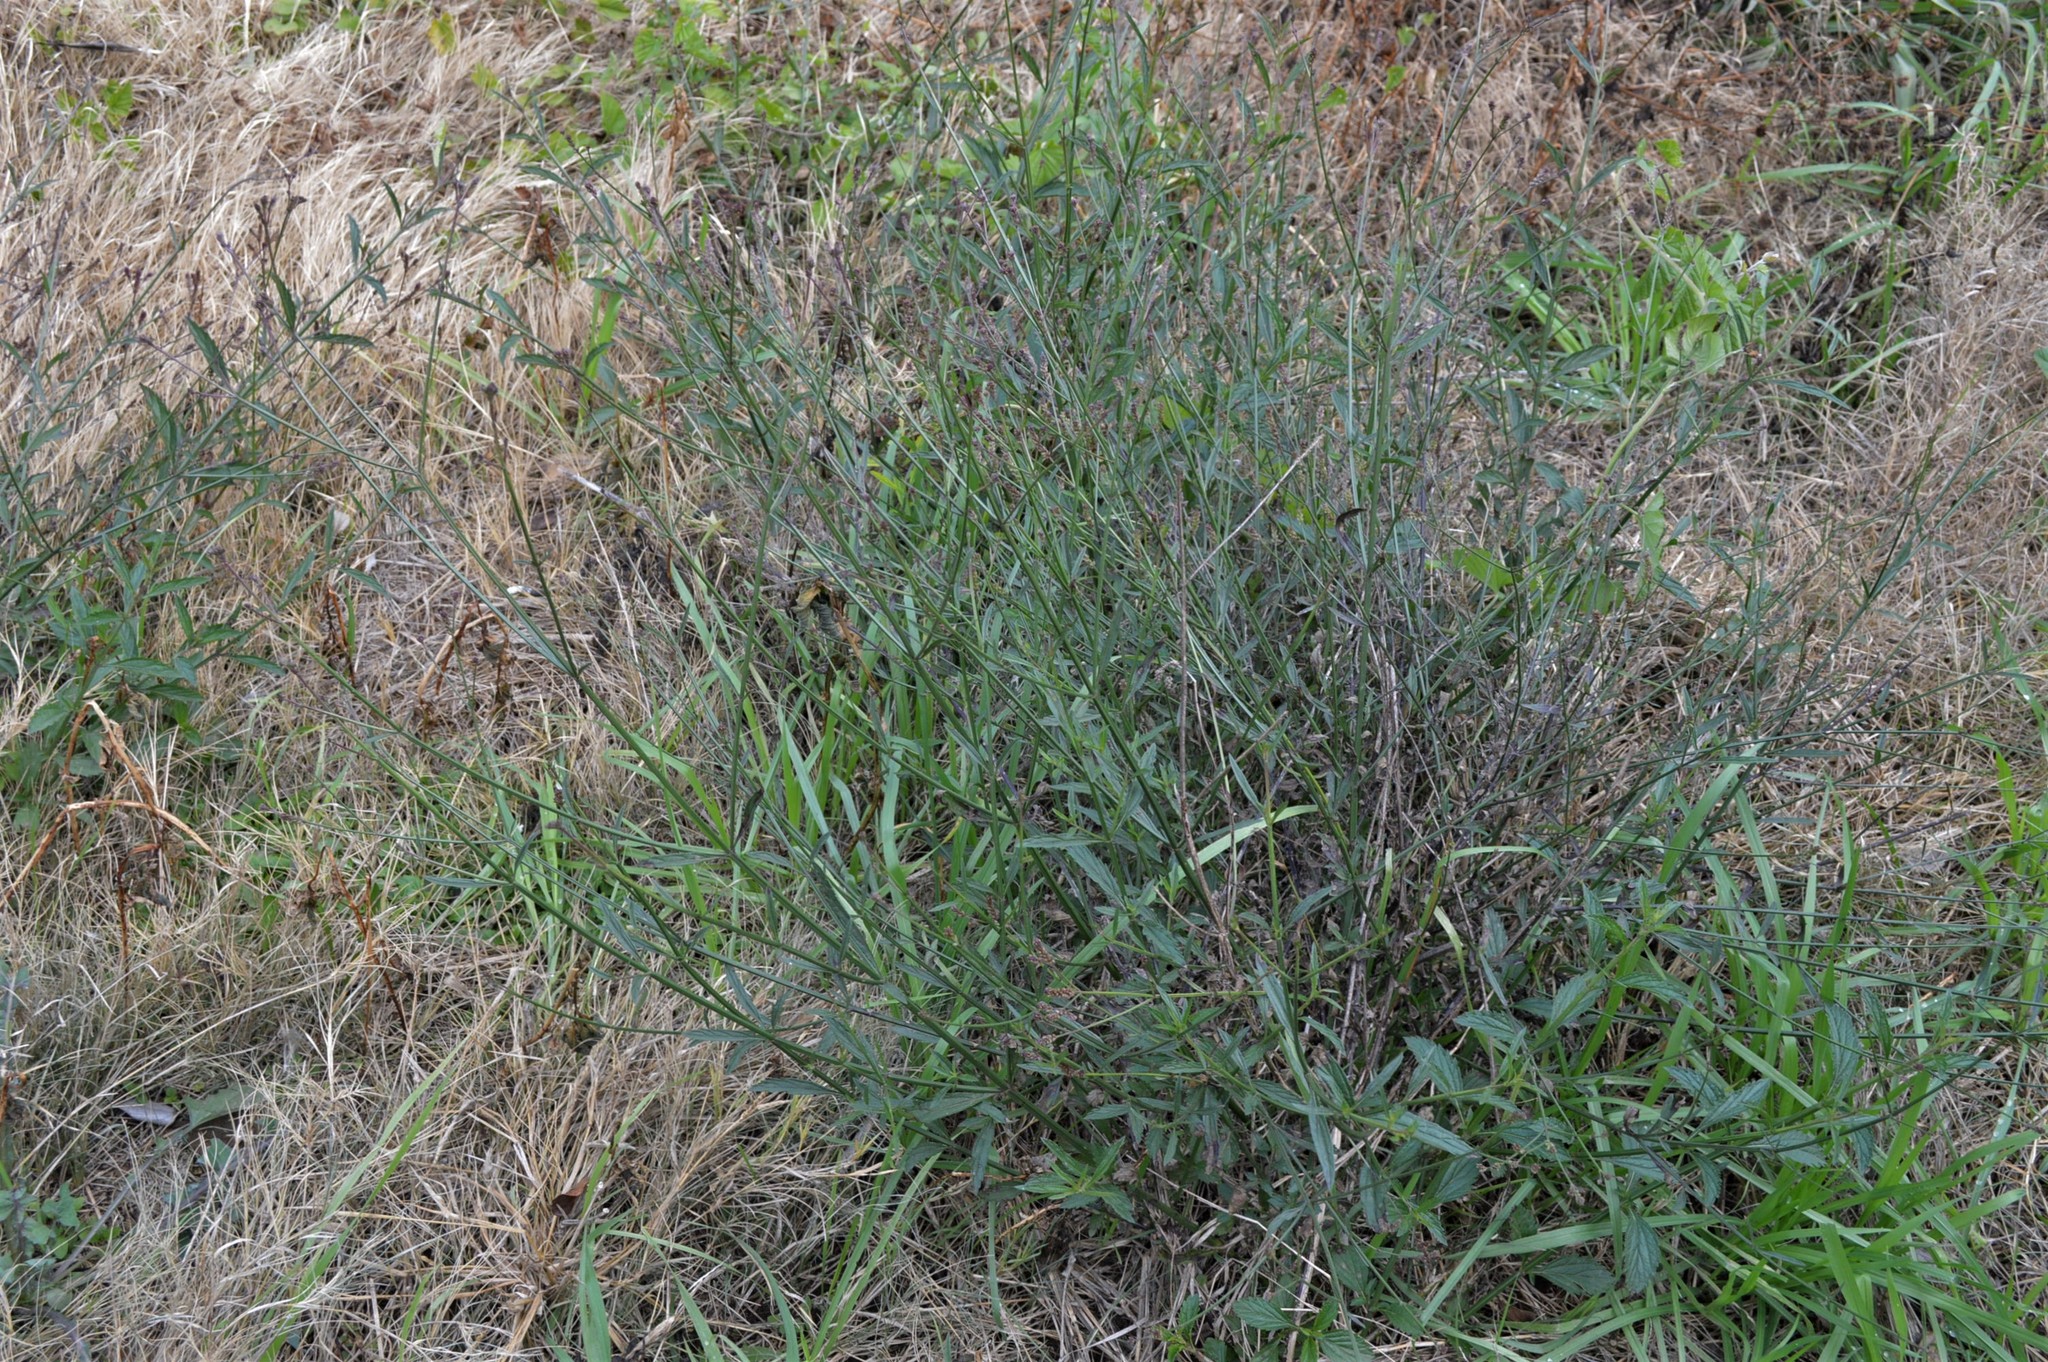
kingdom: Plantae
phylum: Tracheophyta
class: Magnoliopsida
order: Lamiales
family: Verbenaceae
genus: Verbena
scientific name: Verbena brasiliensis
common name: Brazilian vervain
